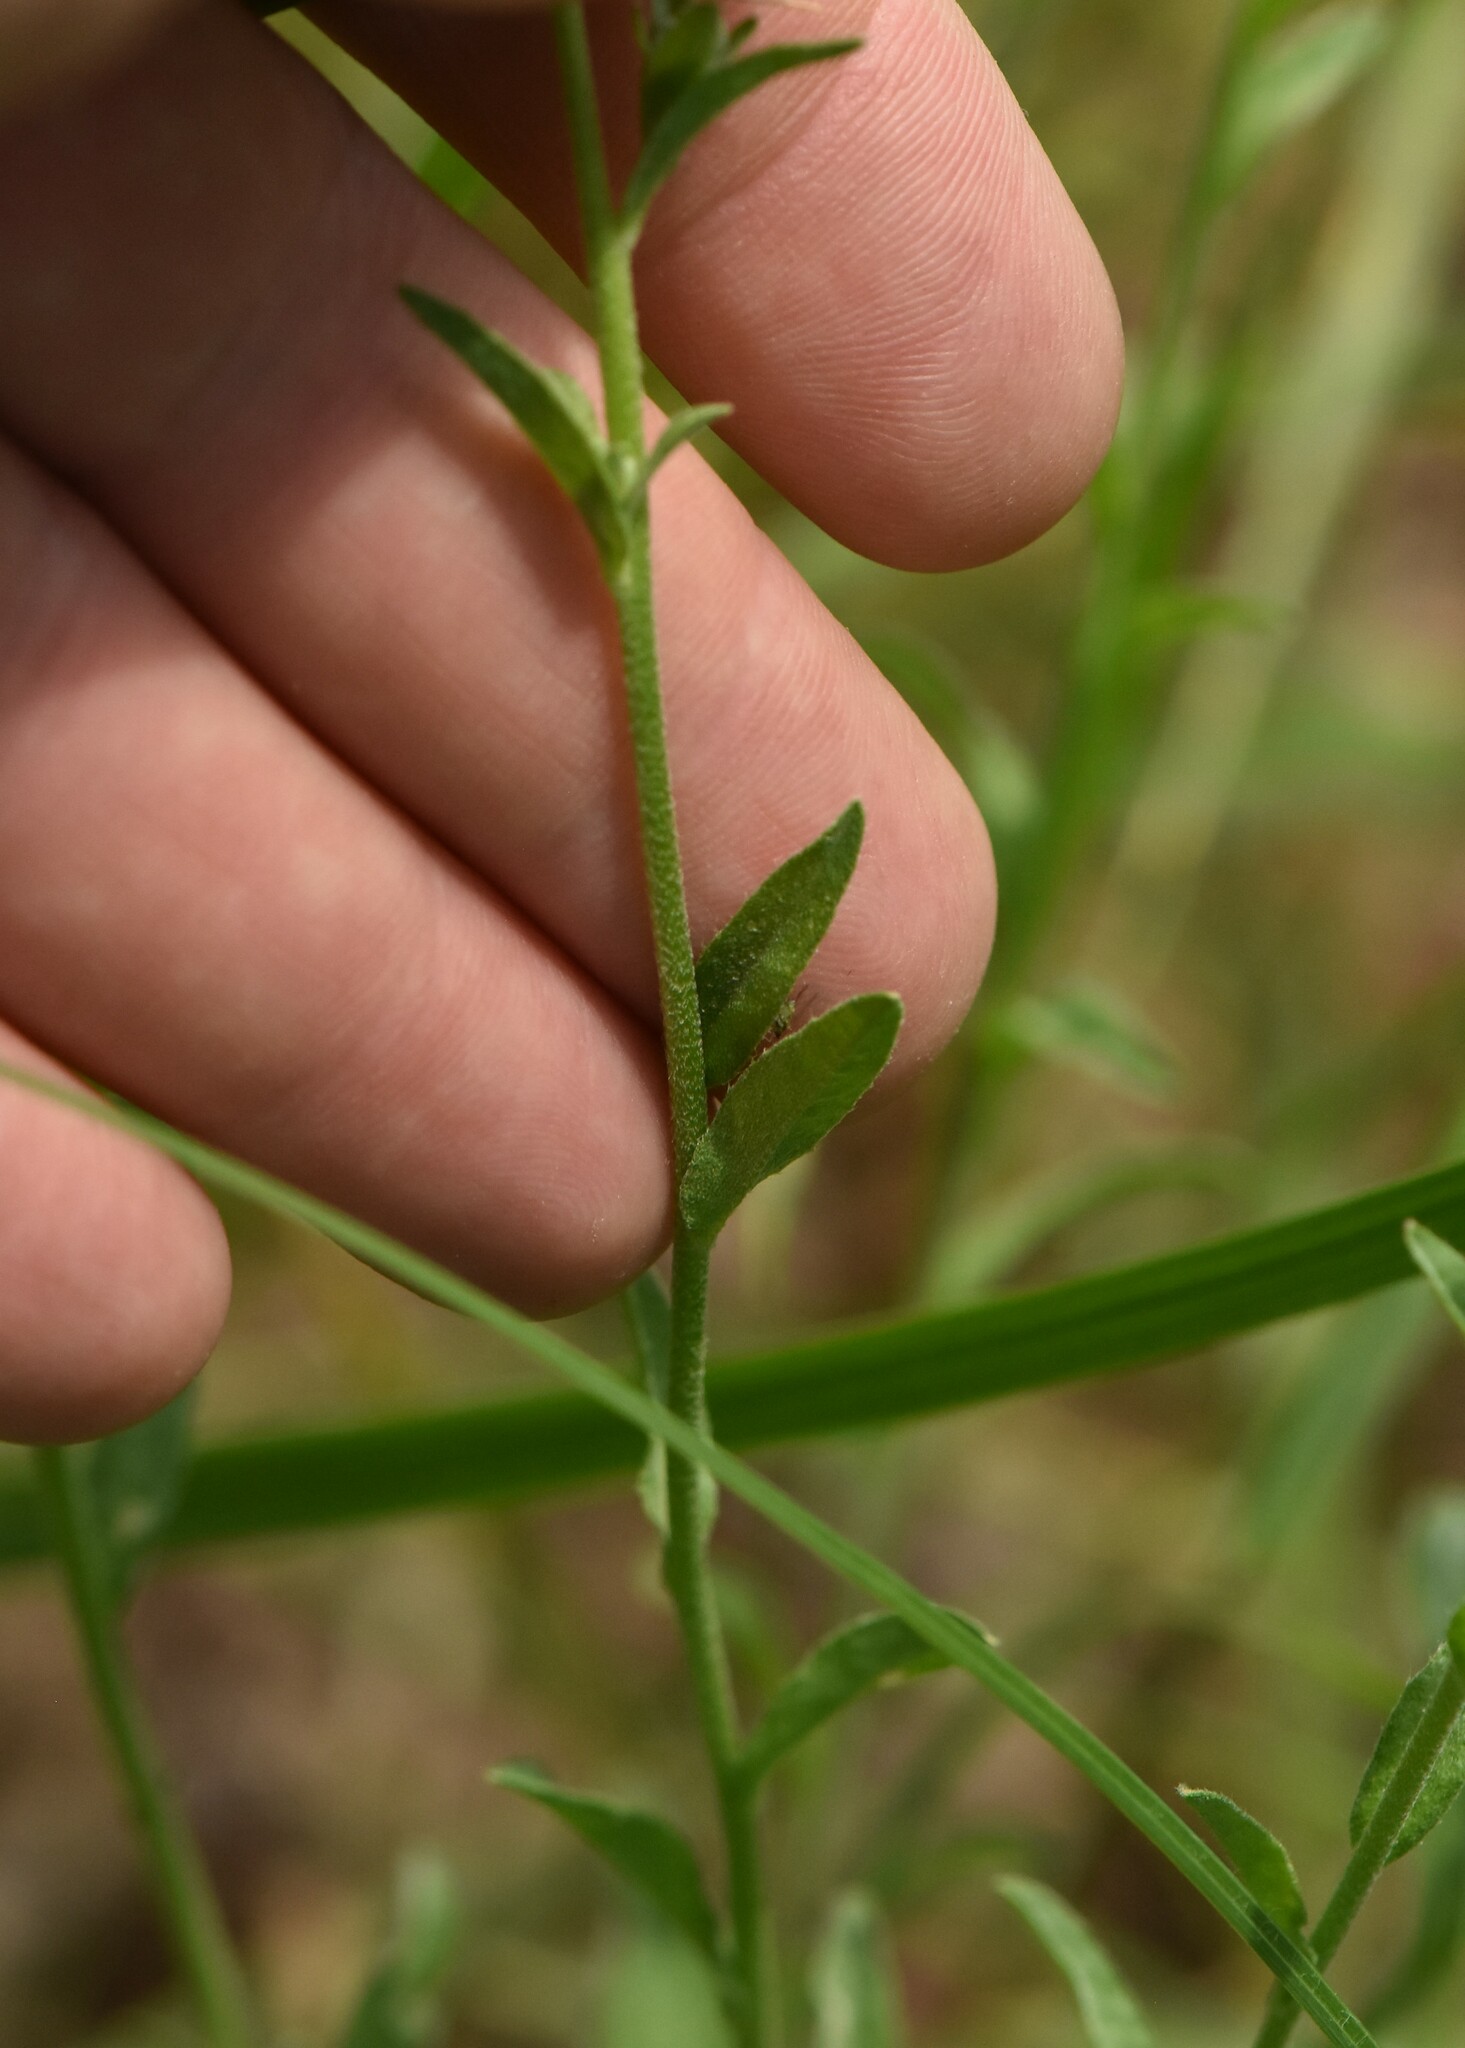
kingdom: Plantae
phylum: Tracheophyta
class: Magnoliopsida
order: Brassicales
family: Brassicaceae
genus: Berteroa
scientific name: Berteroa incana
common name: Hoary alison
